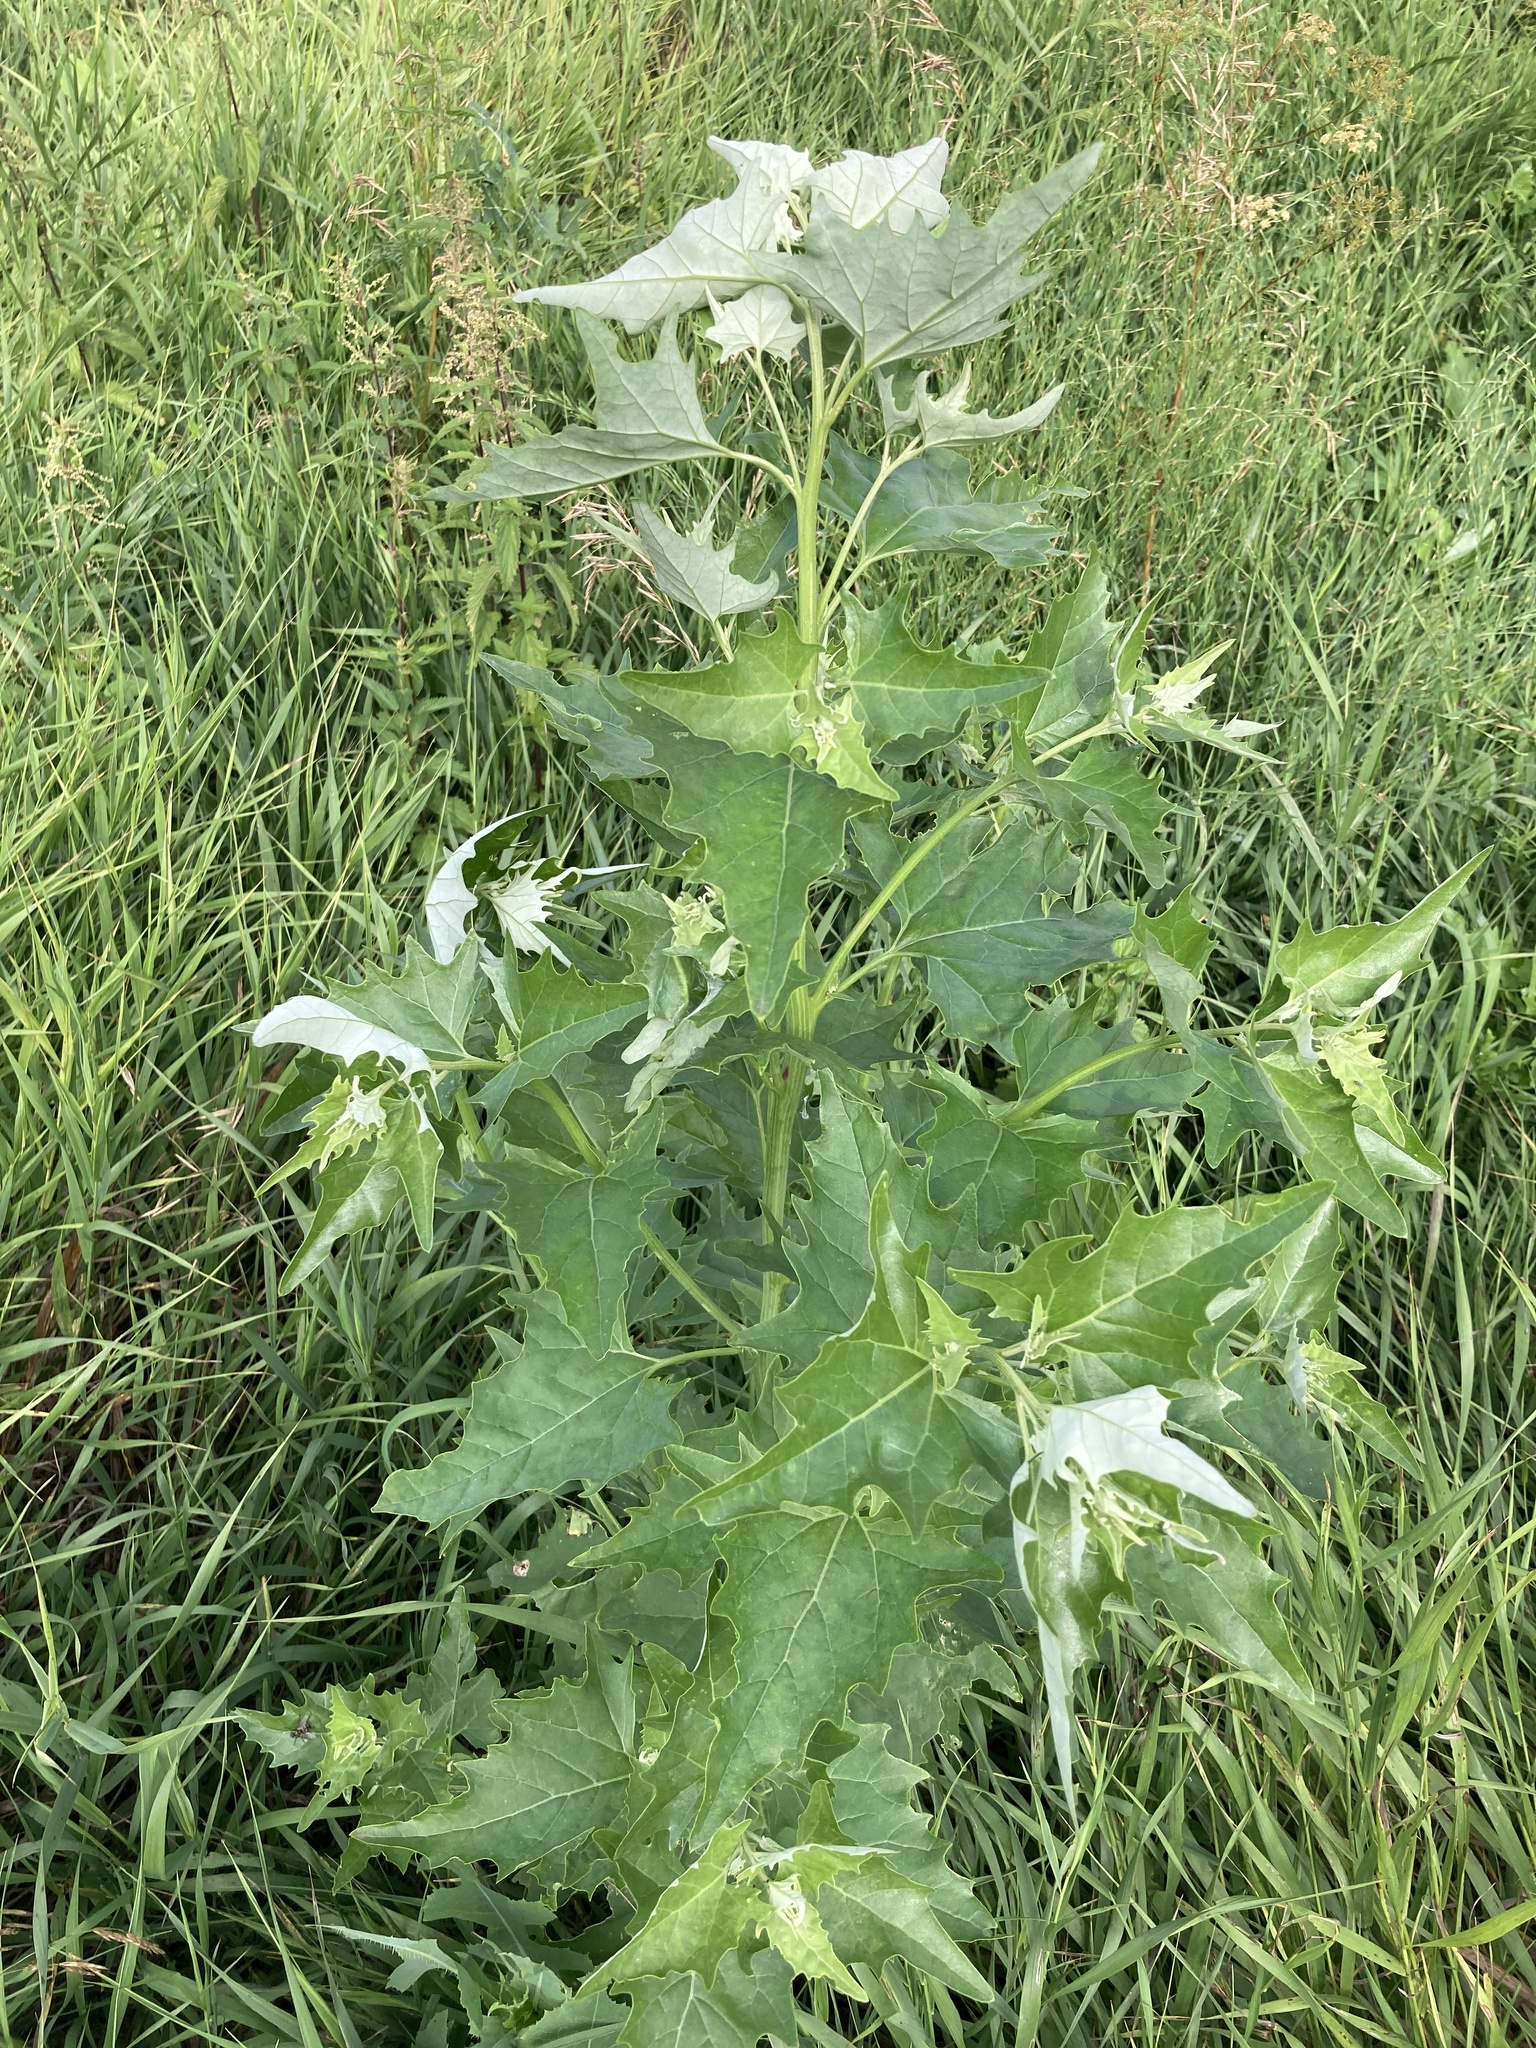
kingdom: Plantae
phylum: Tracheophyta
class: Magnoliopsida
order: Caryophyllales
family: Amaranthaceae
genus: Atriplex
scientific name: Atriplex sagittata
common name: Purple orache
